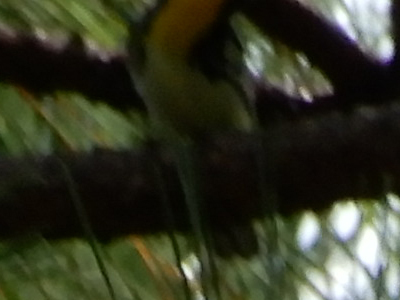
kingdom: Animalia
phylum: Chordata
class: Aves
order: Passeriformes
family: Parulidae
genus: Setophaga
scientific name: Setophaga dominica
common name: Yellow-throated warbler
